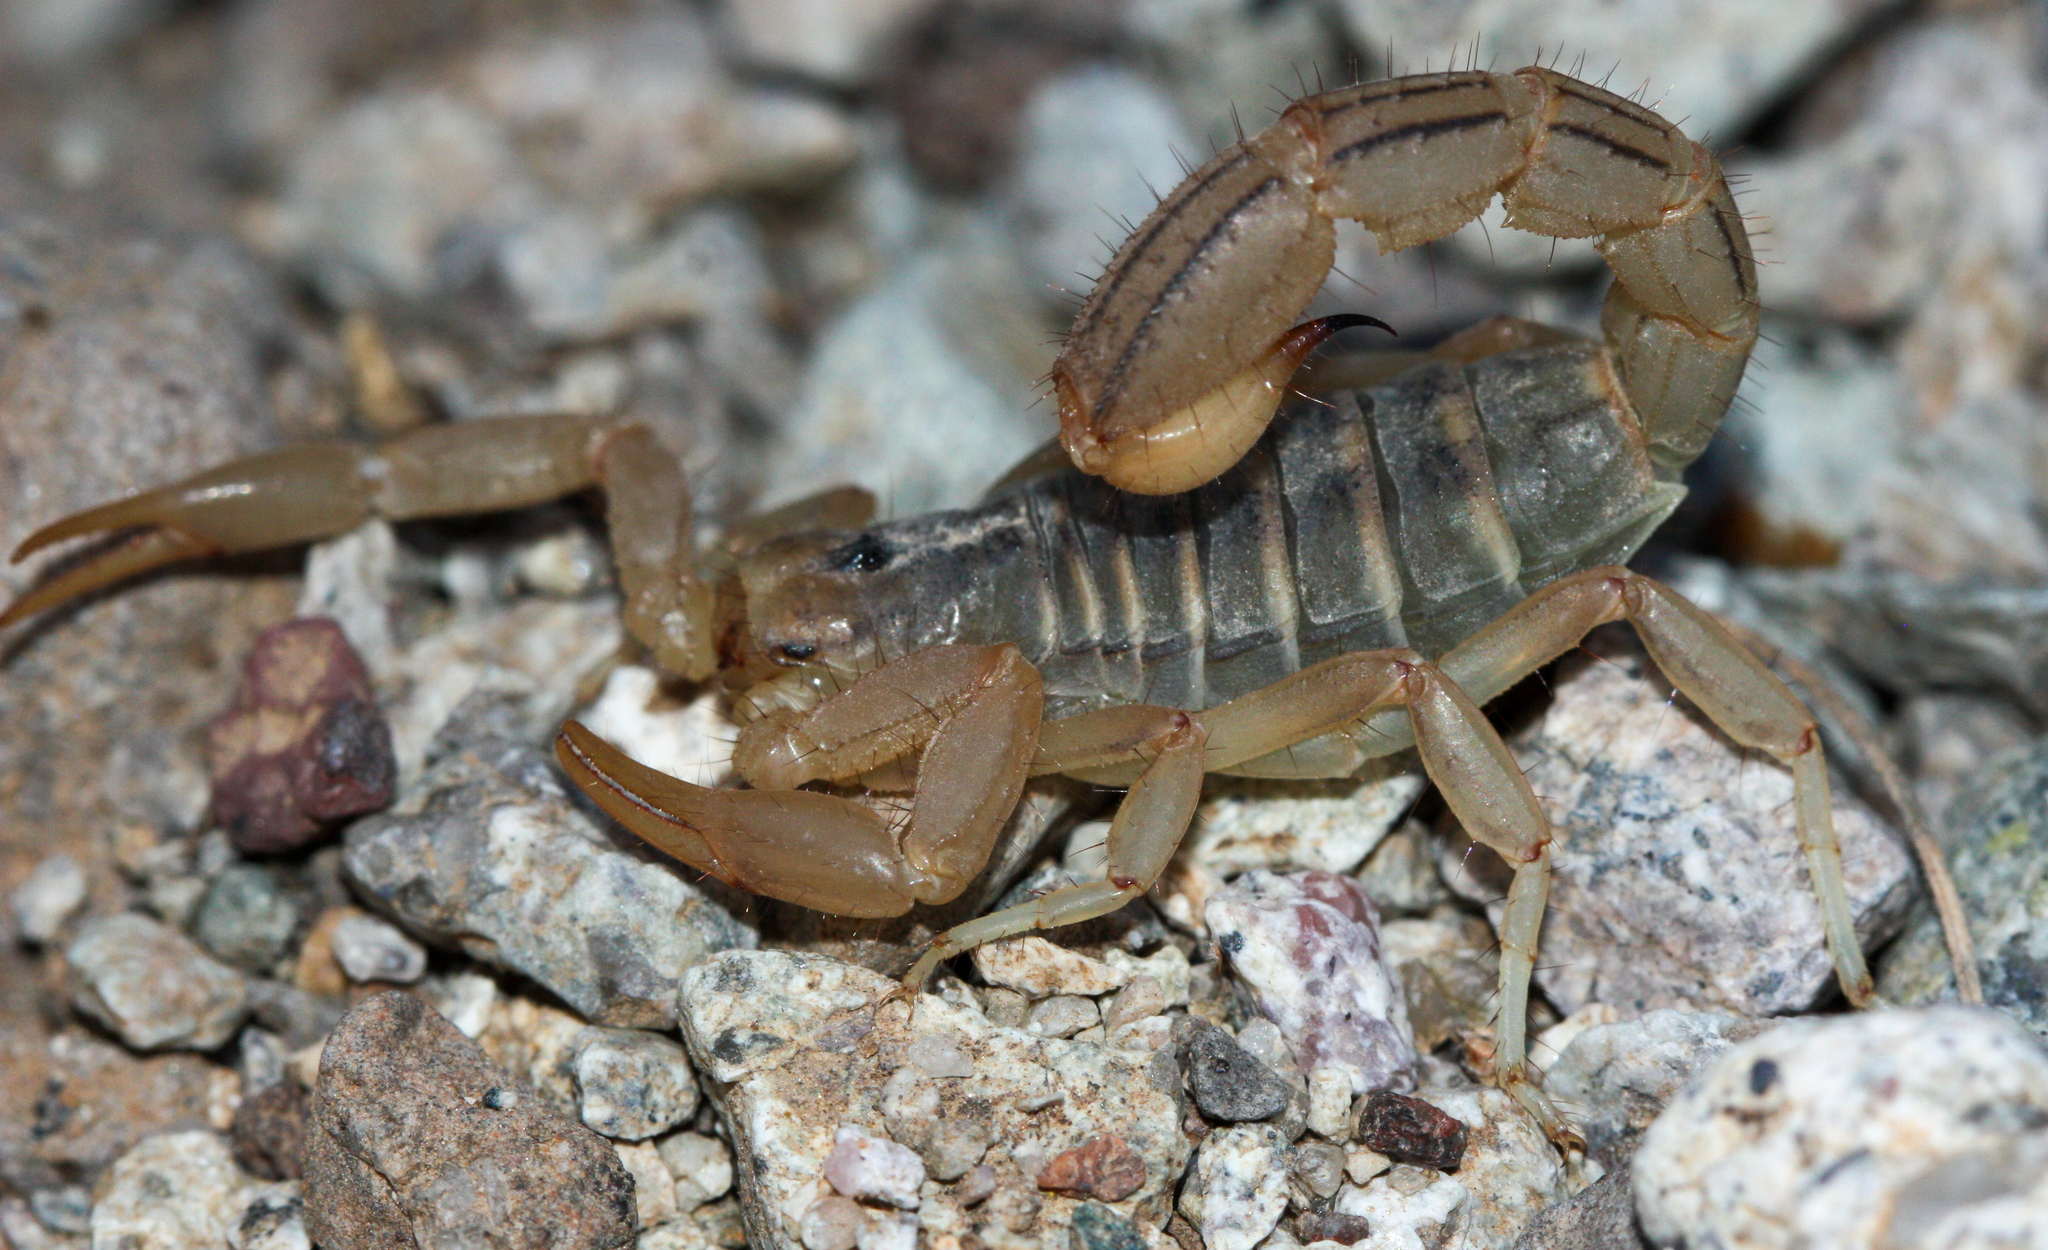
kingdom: Animalia
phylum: Arthropoda
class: Arachnida
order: Scorpiones
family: Vaejovidae
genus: Paravaejovis
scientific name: Paravaejovis spinigerus
